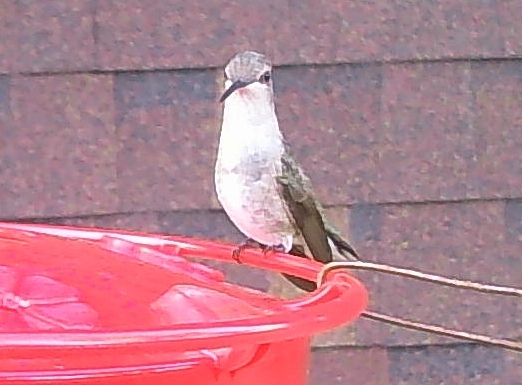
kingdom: Animalia
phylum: Chordata
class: Aves
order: Apodiformes
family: Trochilidae
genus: Archilochus
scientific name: Archilochus alexandri
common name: Black-chinned hummingbird
